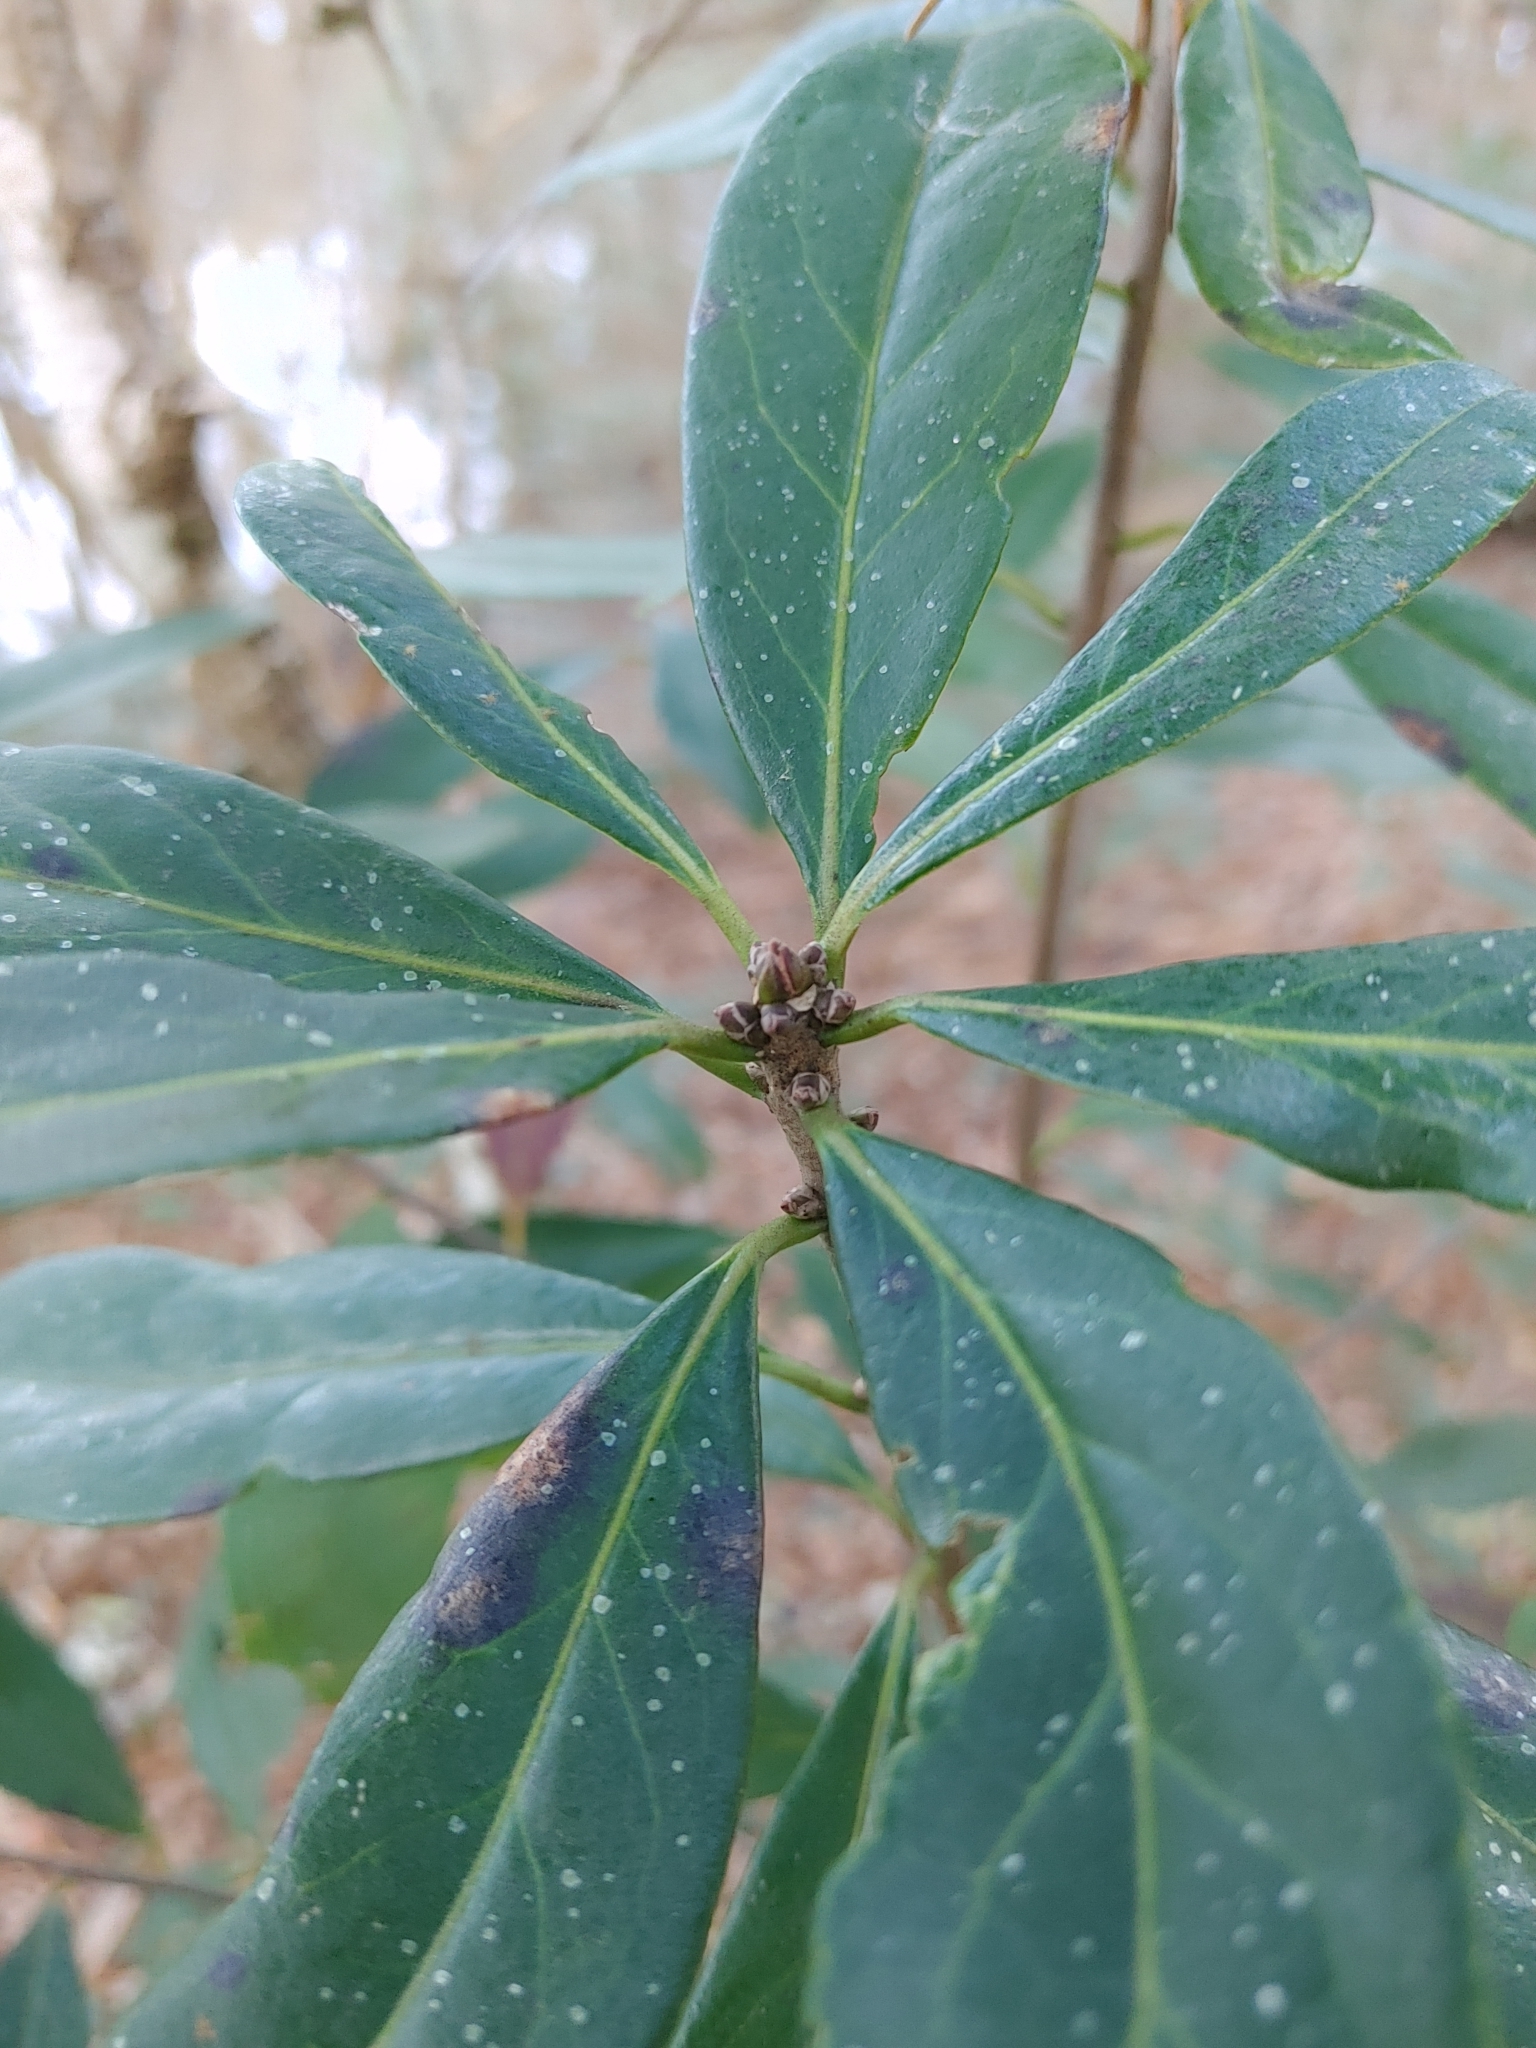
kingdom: Plantae
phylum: Tracheophyta
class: Magnoliopsida
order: Ericales
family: Symplocaceae
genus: Symplocos
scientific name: Symplocos tinctoria
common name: Horse-sugar
